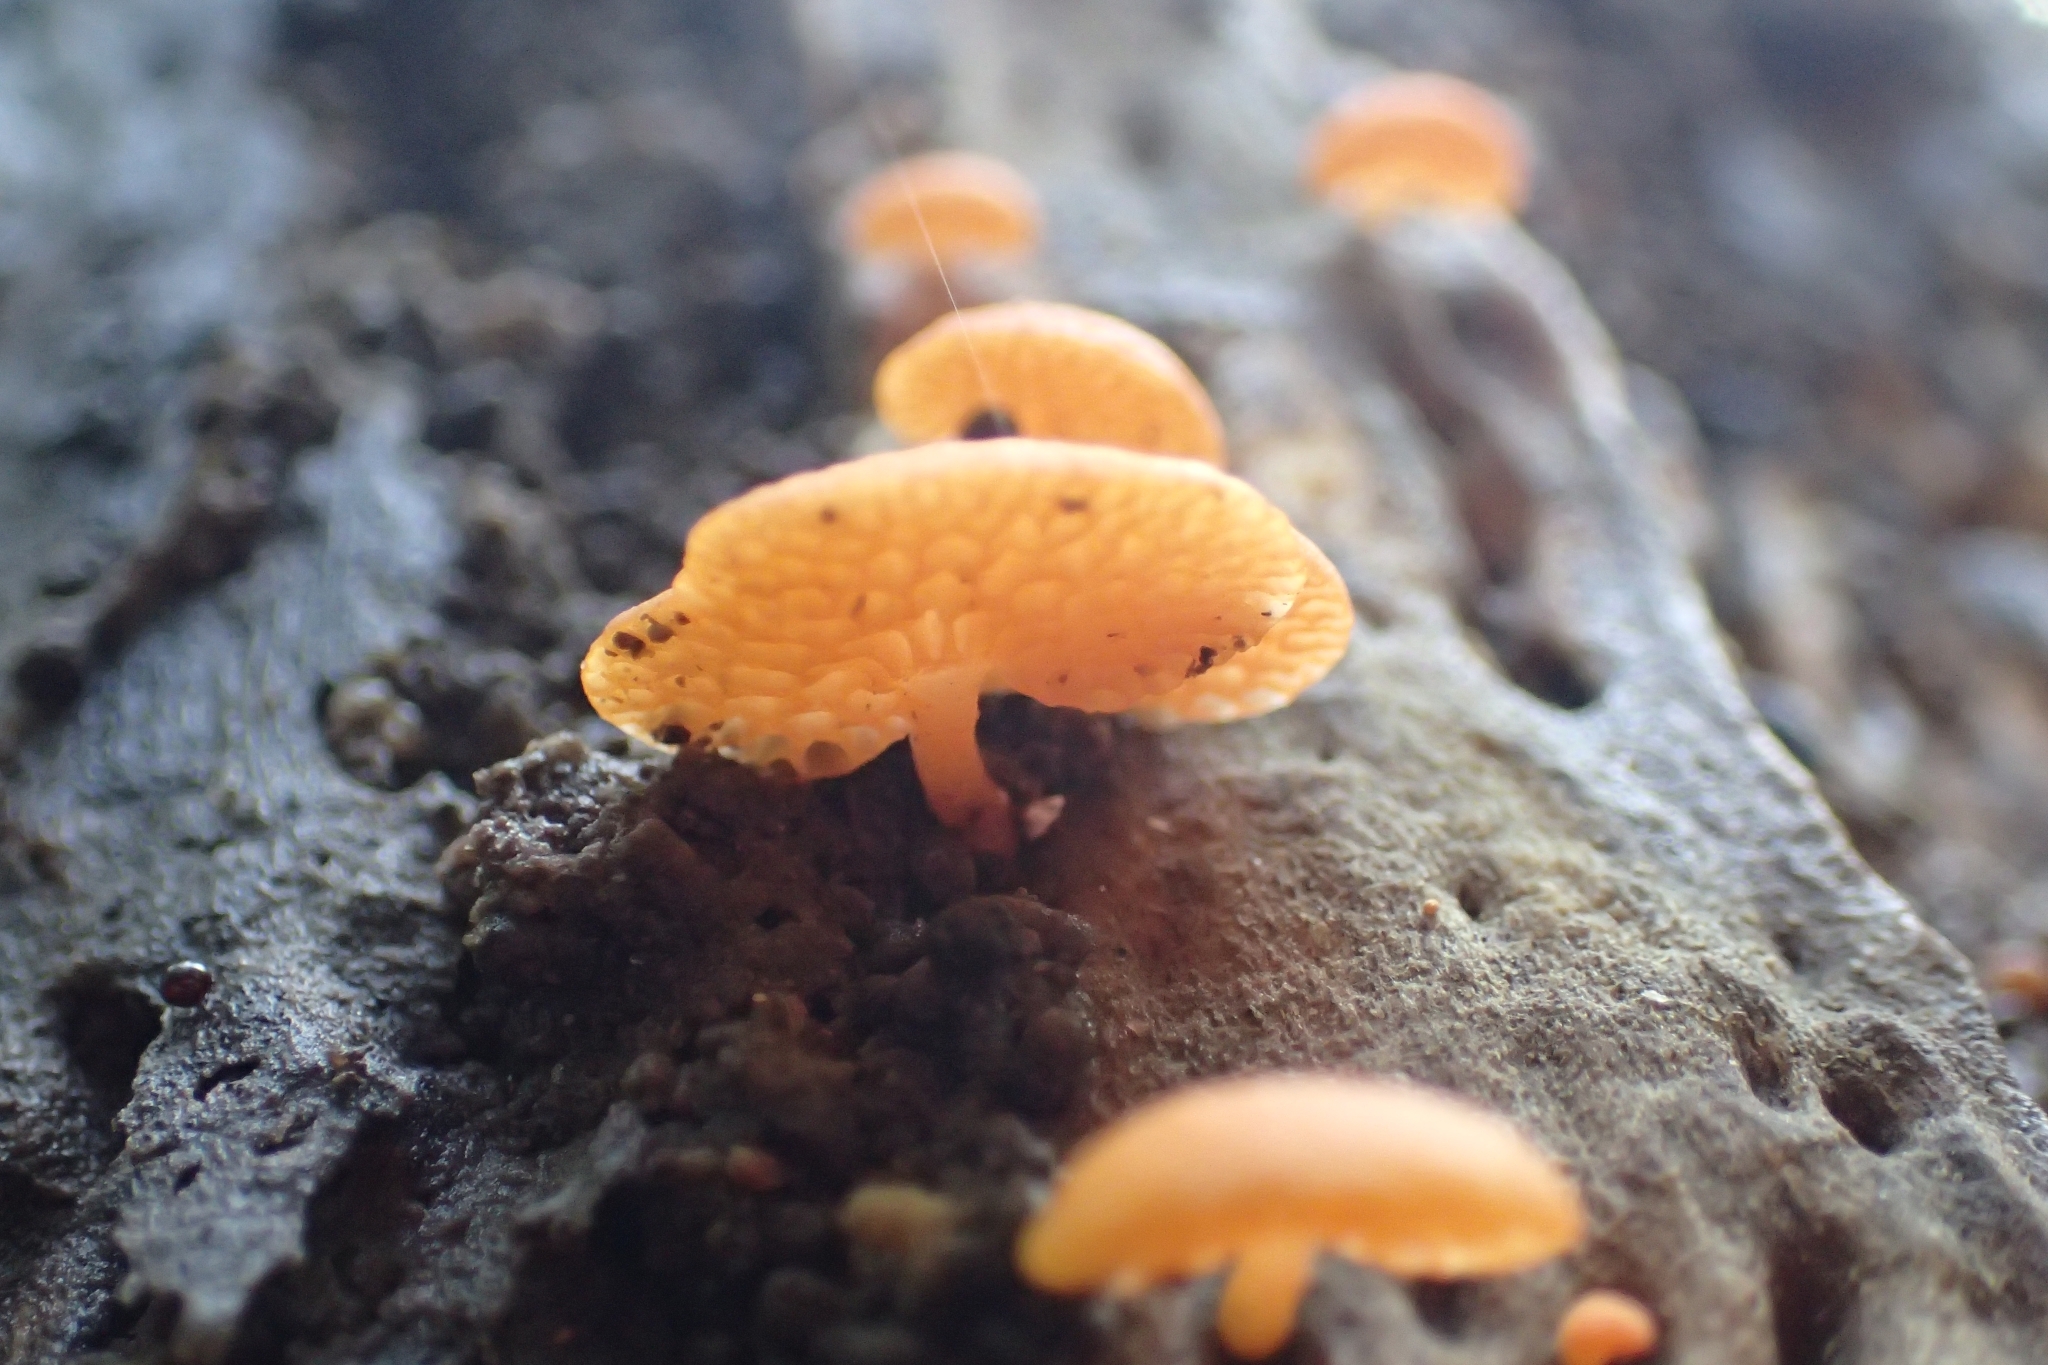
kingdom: Fungi
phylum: Basidiomycota
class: Agaricomycetes
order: Agaricales
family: Mycenaceae
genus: Favolaschia
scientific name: Favolaschia claudopus
